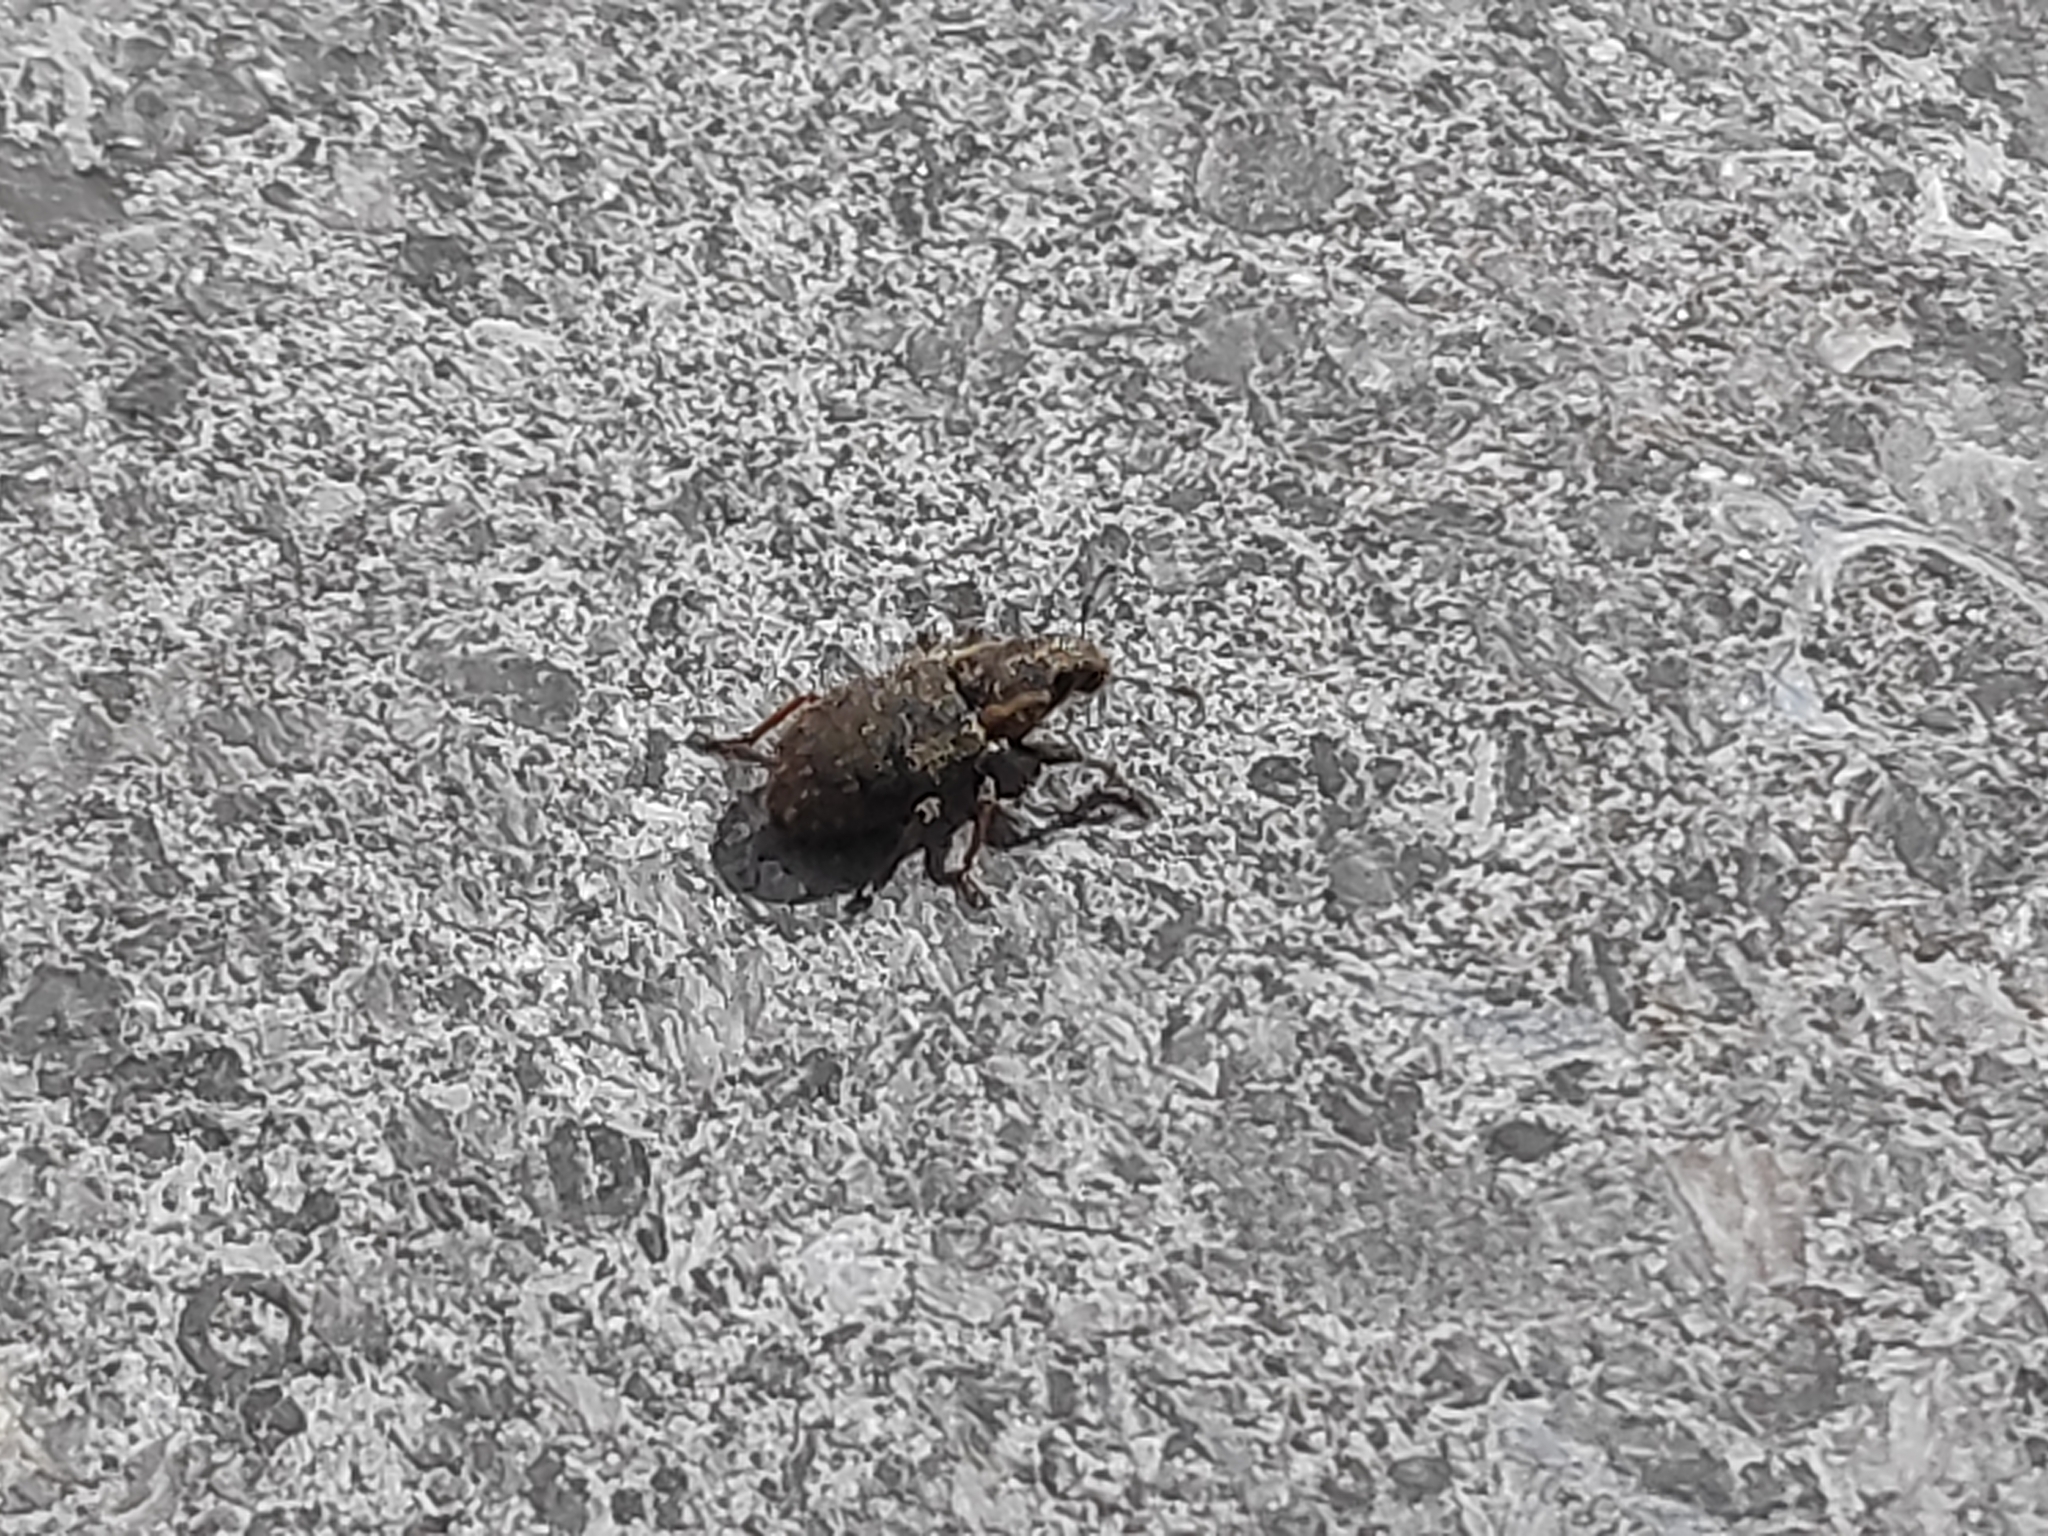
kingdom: Animalia
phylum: Arthropoda
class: Insecta
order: Coleoptera
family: Curculionidae
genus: Sitona
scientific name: Sitona hispidulus
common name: Clover weevil
